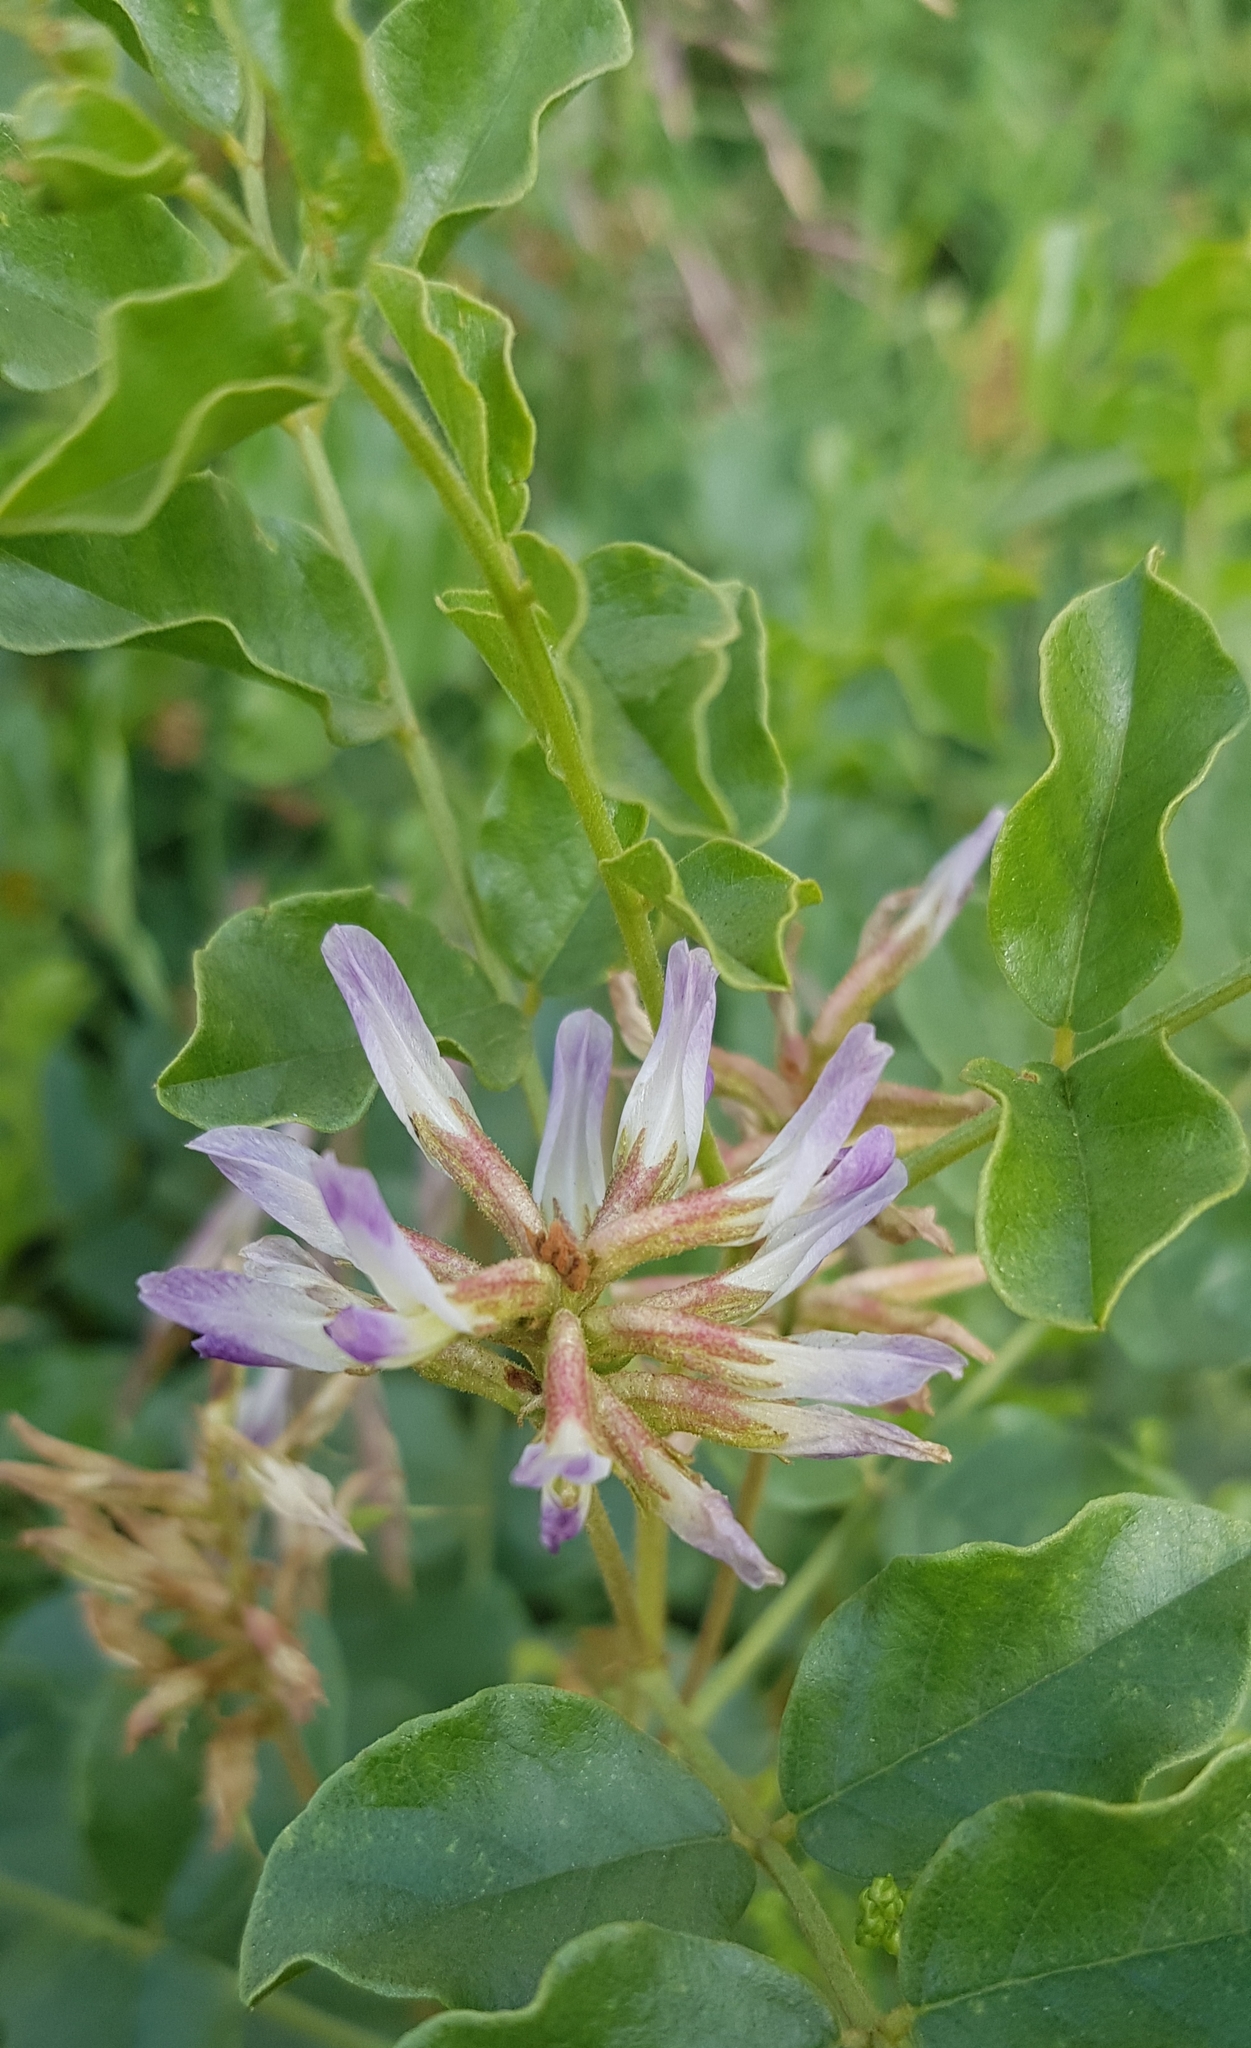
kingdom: Plantae
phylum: Tracheophyta
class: Magnoliopsida
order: Fabales
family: Fabaceae
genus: Glycyrrhiza
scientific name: Glycyrrhiza uralensis
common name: Chinese licorice
